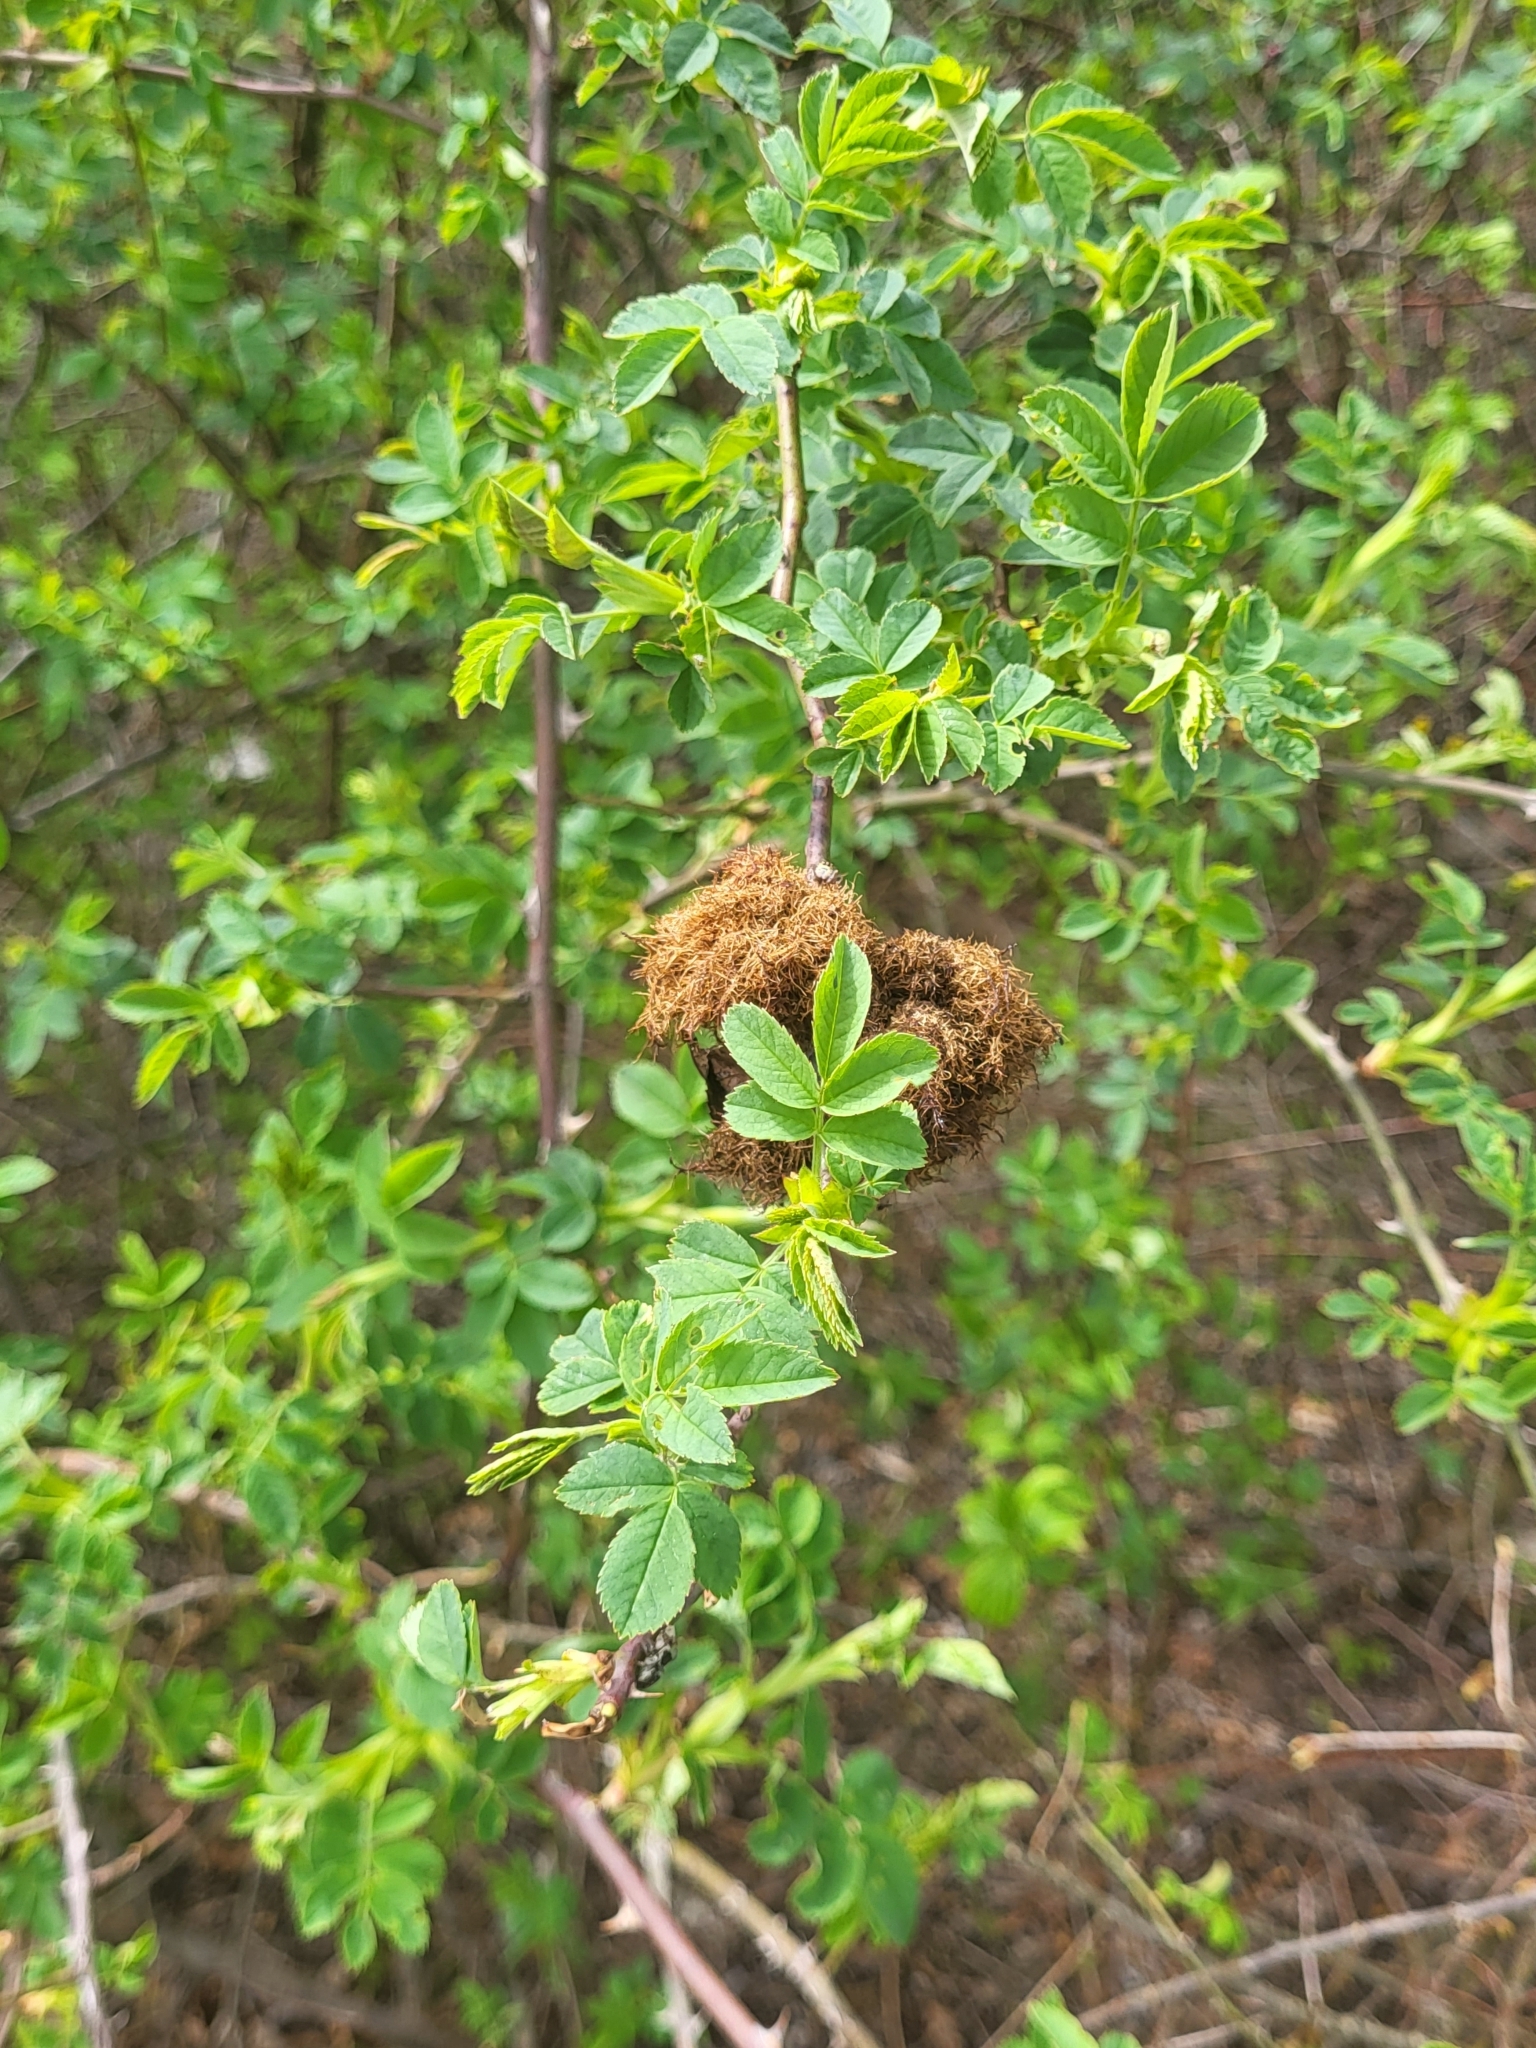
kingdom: Animalia
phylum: Arthropoda
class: Insecta
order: Hymenoptera
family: Cynipidae
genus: Diplolepis
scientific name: Diplolepis rosae
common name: Bedeguar gall
